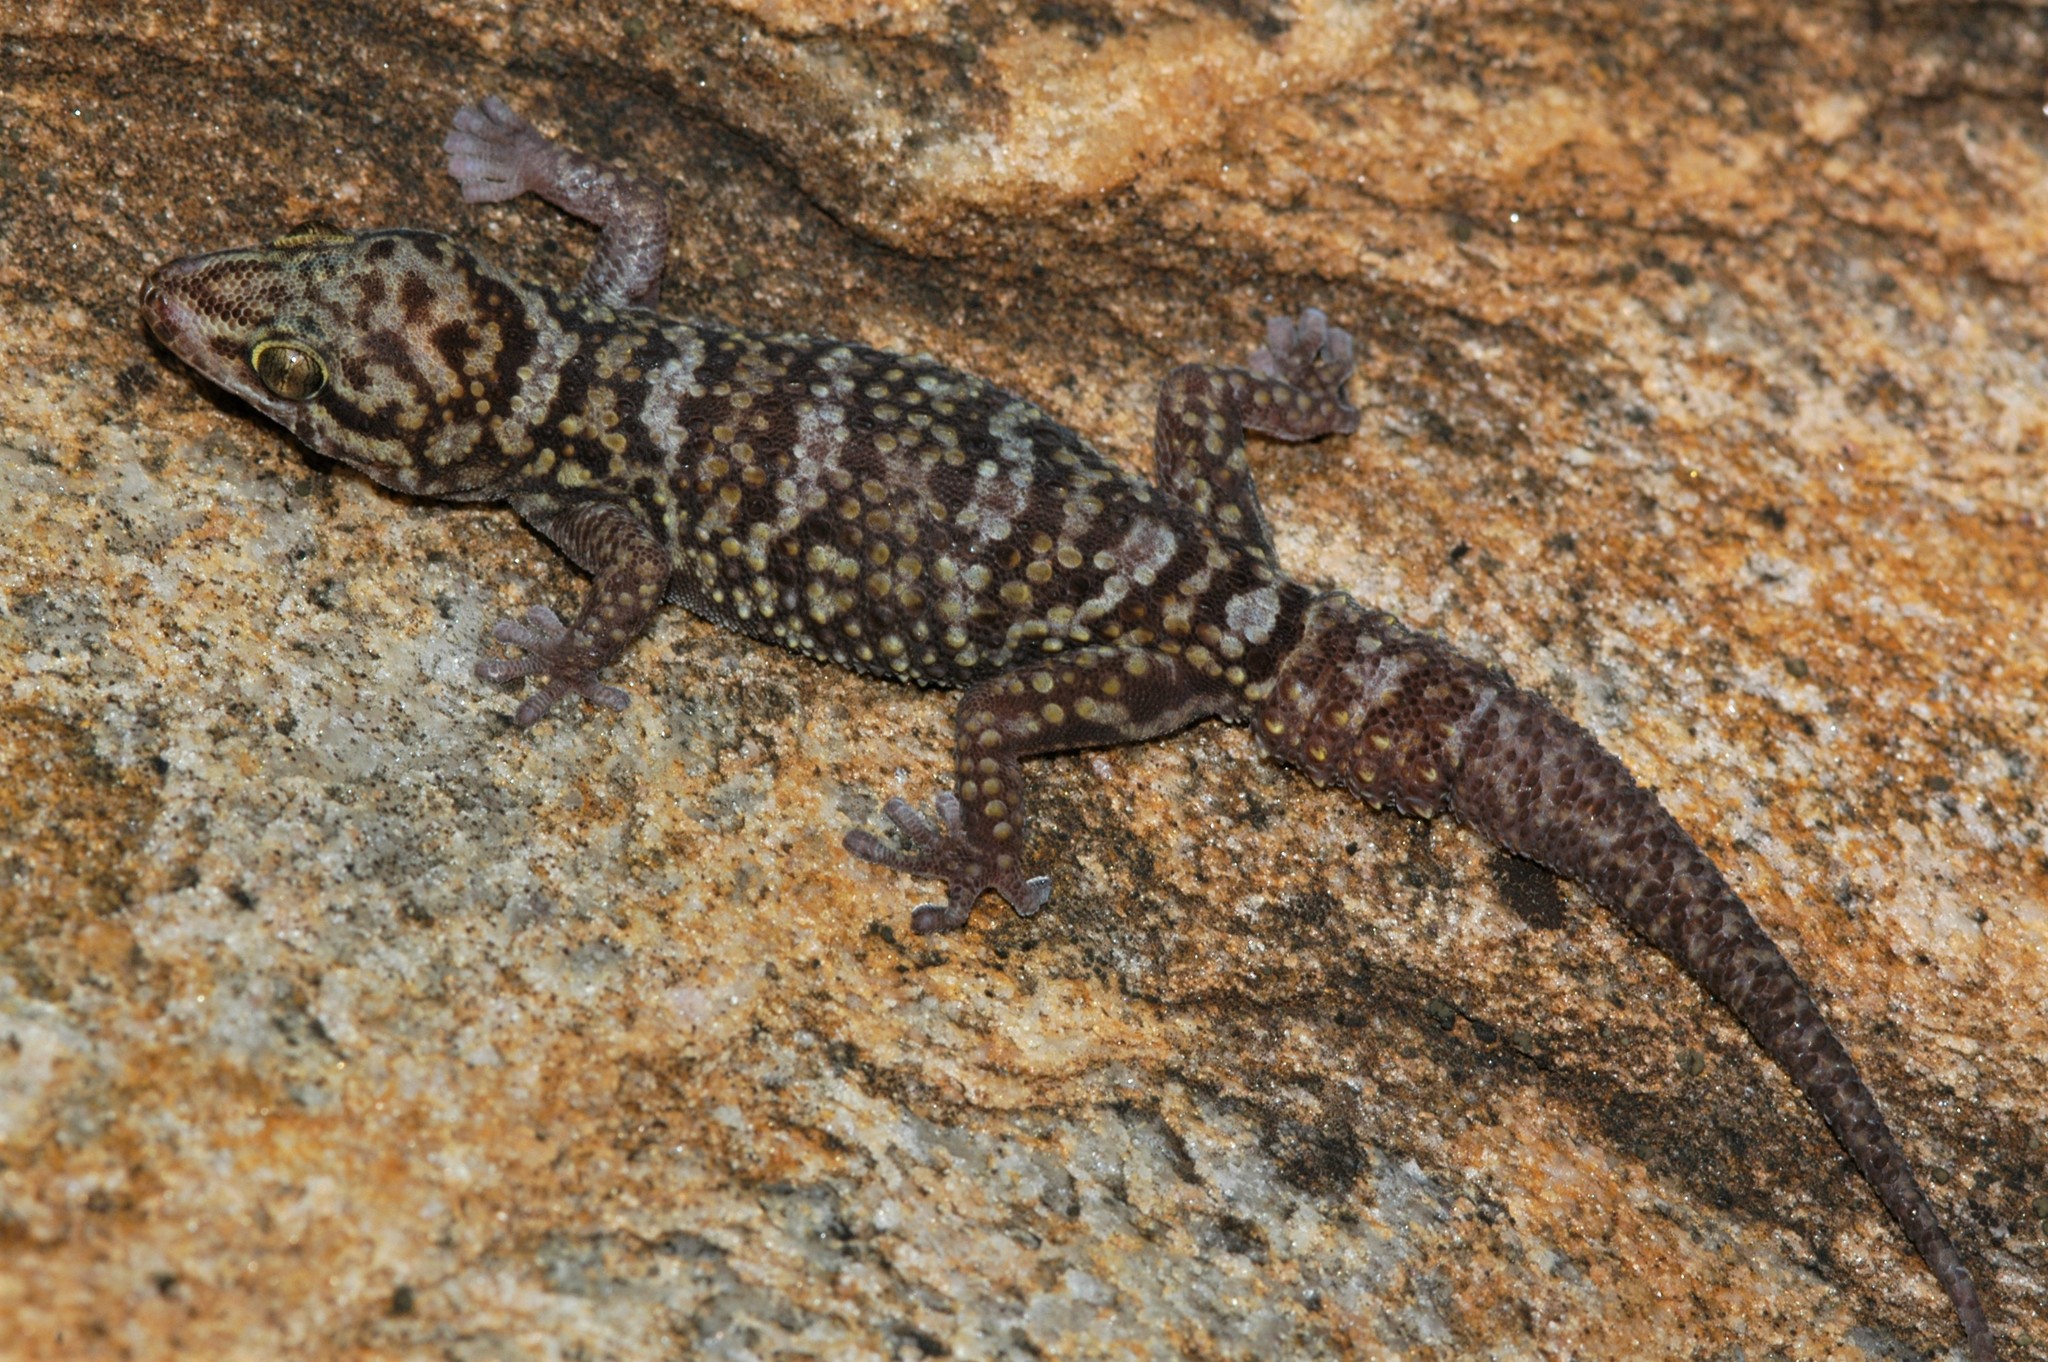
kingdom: Animalia
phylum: Chordata
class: Squamata
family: Gekkonidae
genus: Pachydactylus
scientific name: Pachydactylus tsodiloensis
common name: Tsodilo thick-toed gecko
